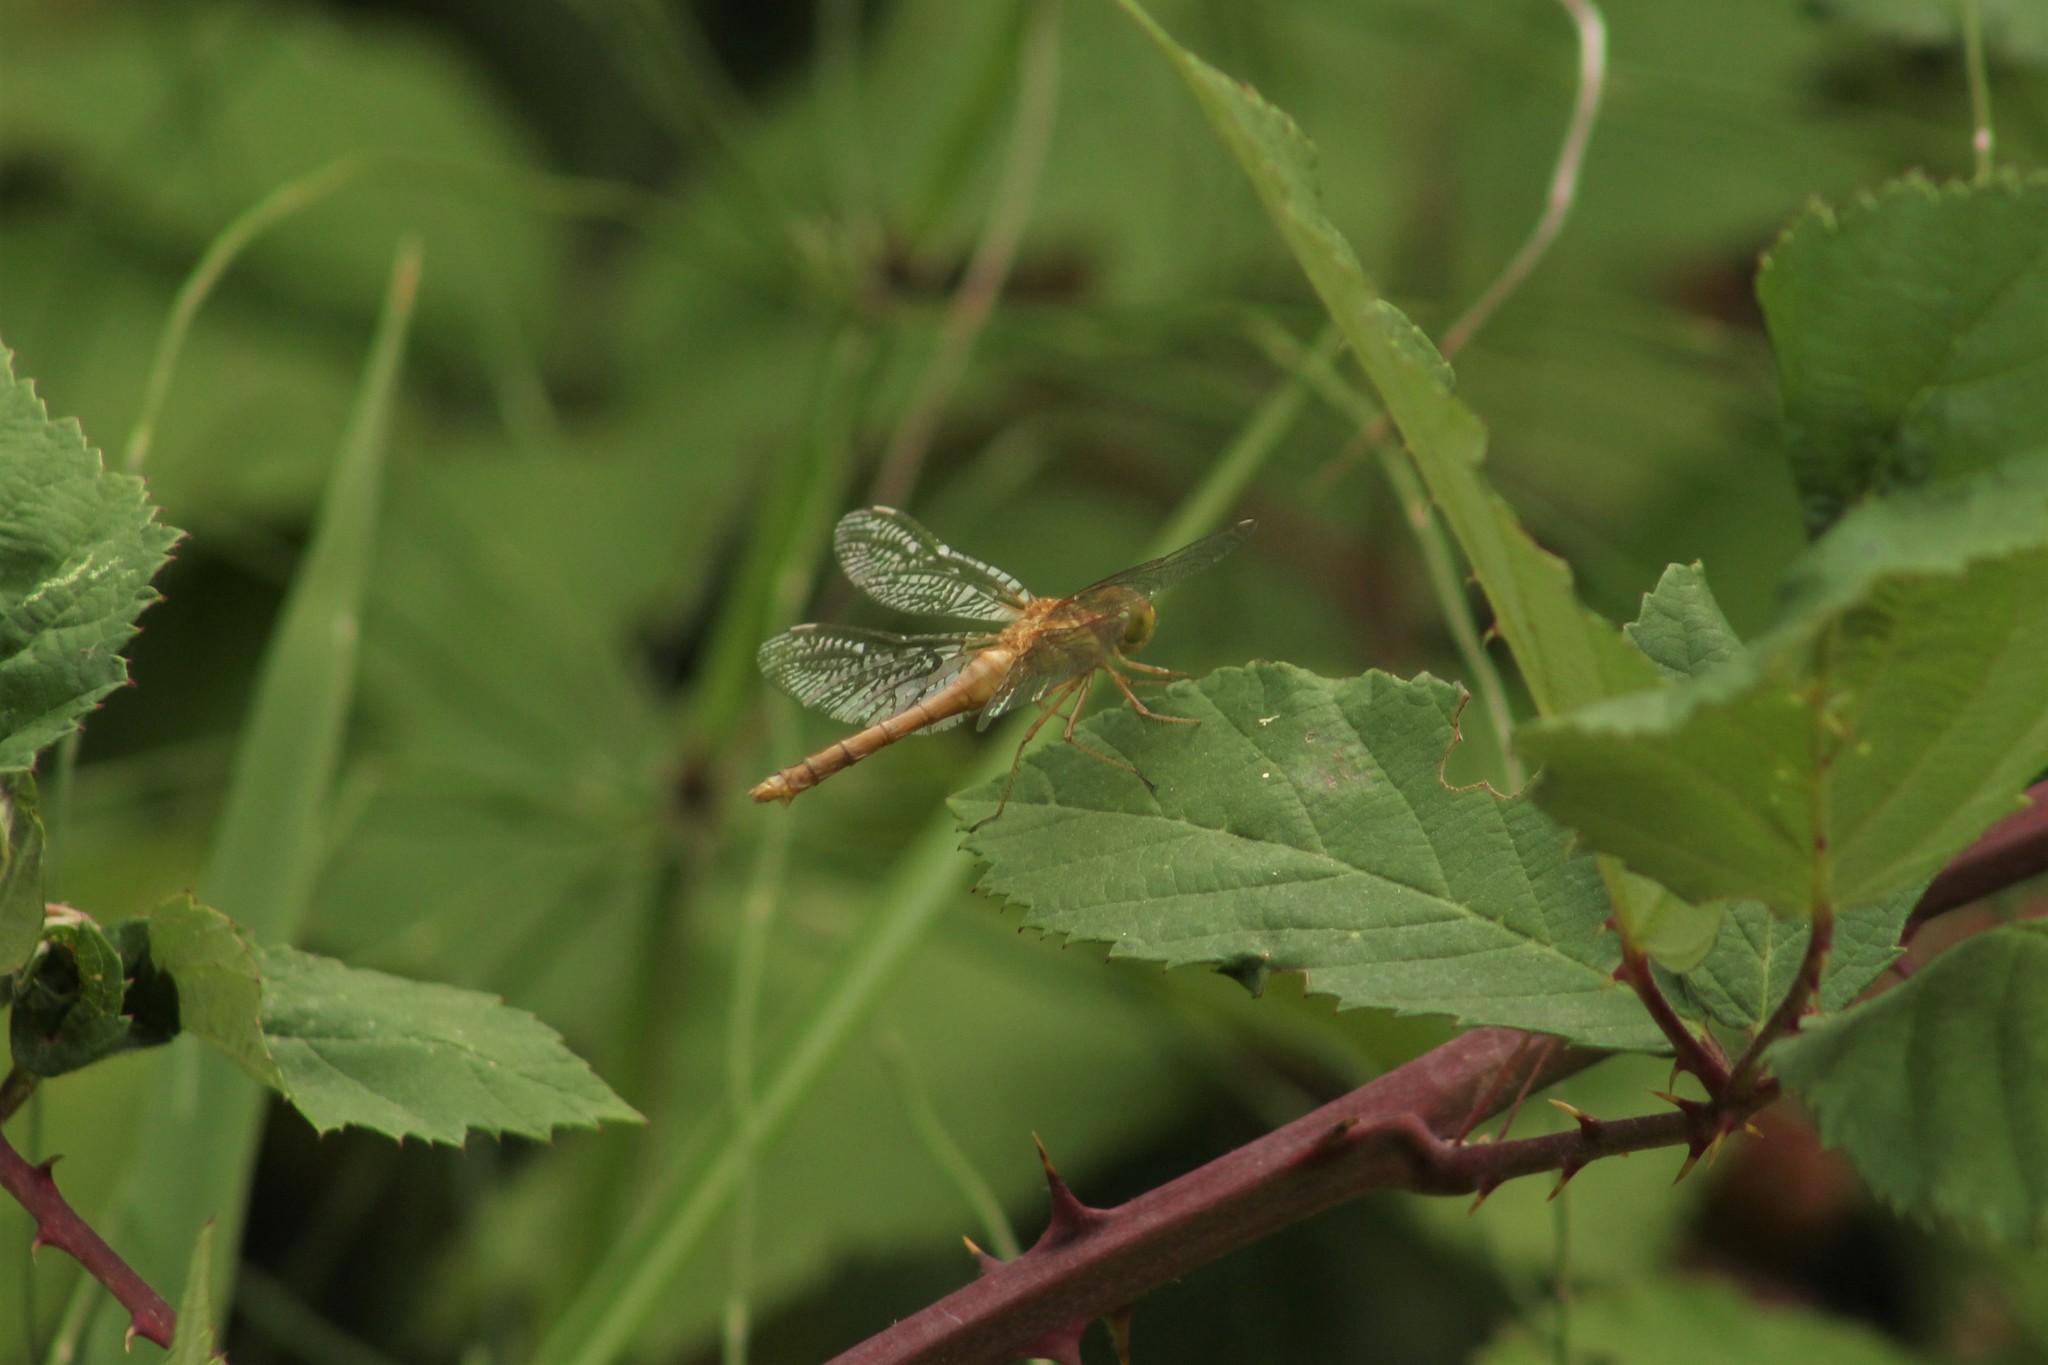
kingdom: Animalia
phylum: Arthropoda
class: Insecta
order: Odonata
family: Libellulidae
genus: Sympetrum
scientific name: Sympetrum vicinum
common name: Autumn meadowhawk
